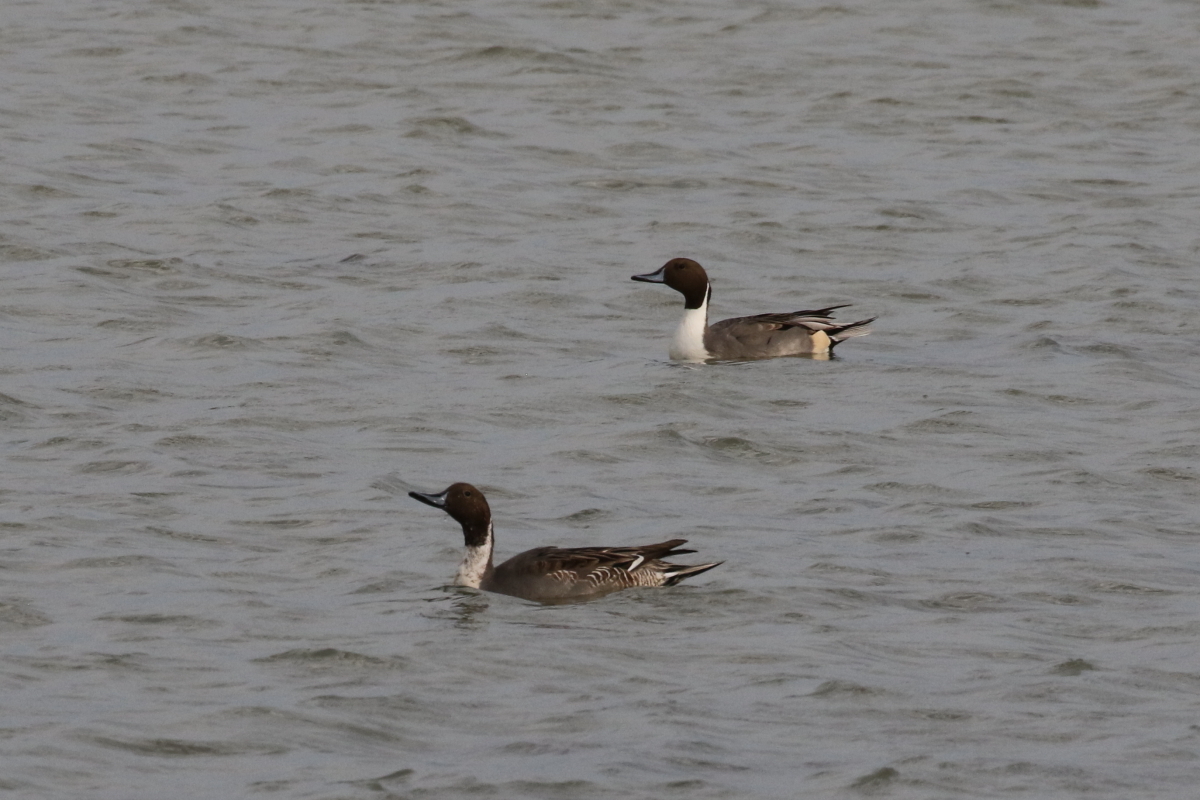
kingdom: Animalia
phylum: Chordata
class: Aves
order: Anseriformes
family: Anatidae
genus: Anas
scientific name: Anas acuta
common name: Northern pintail
